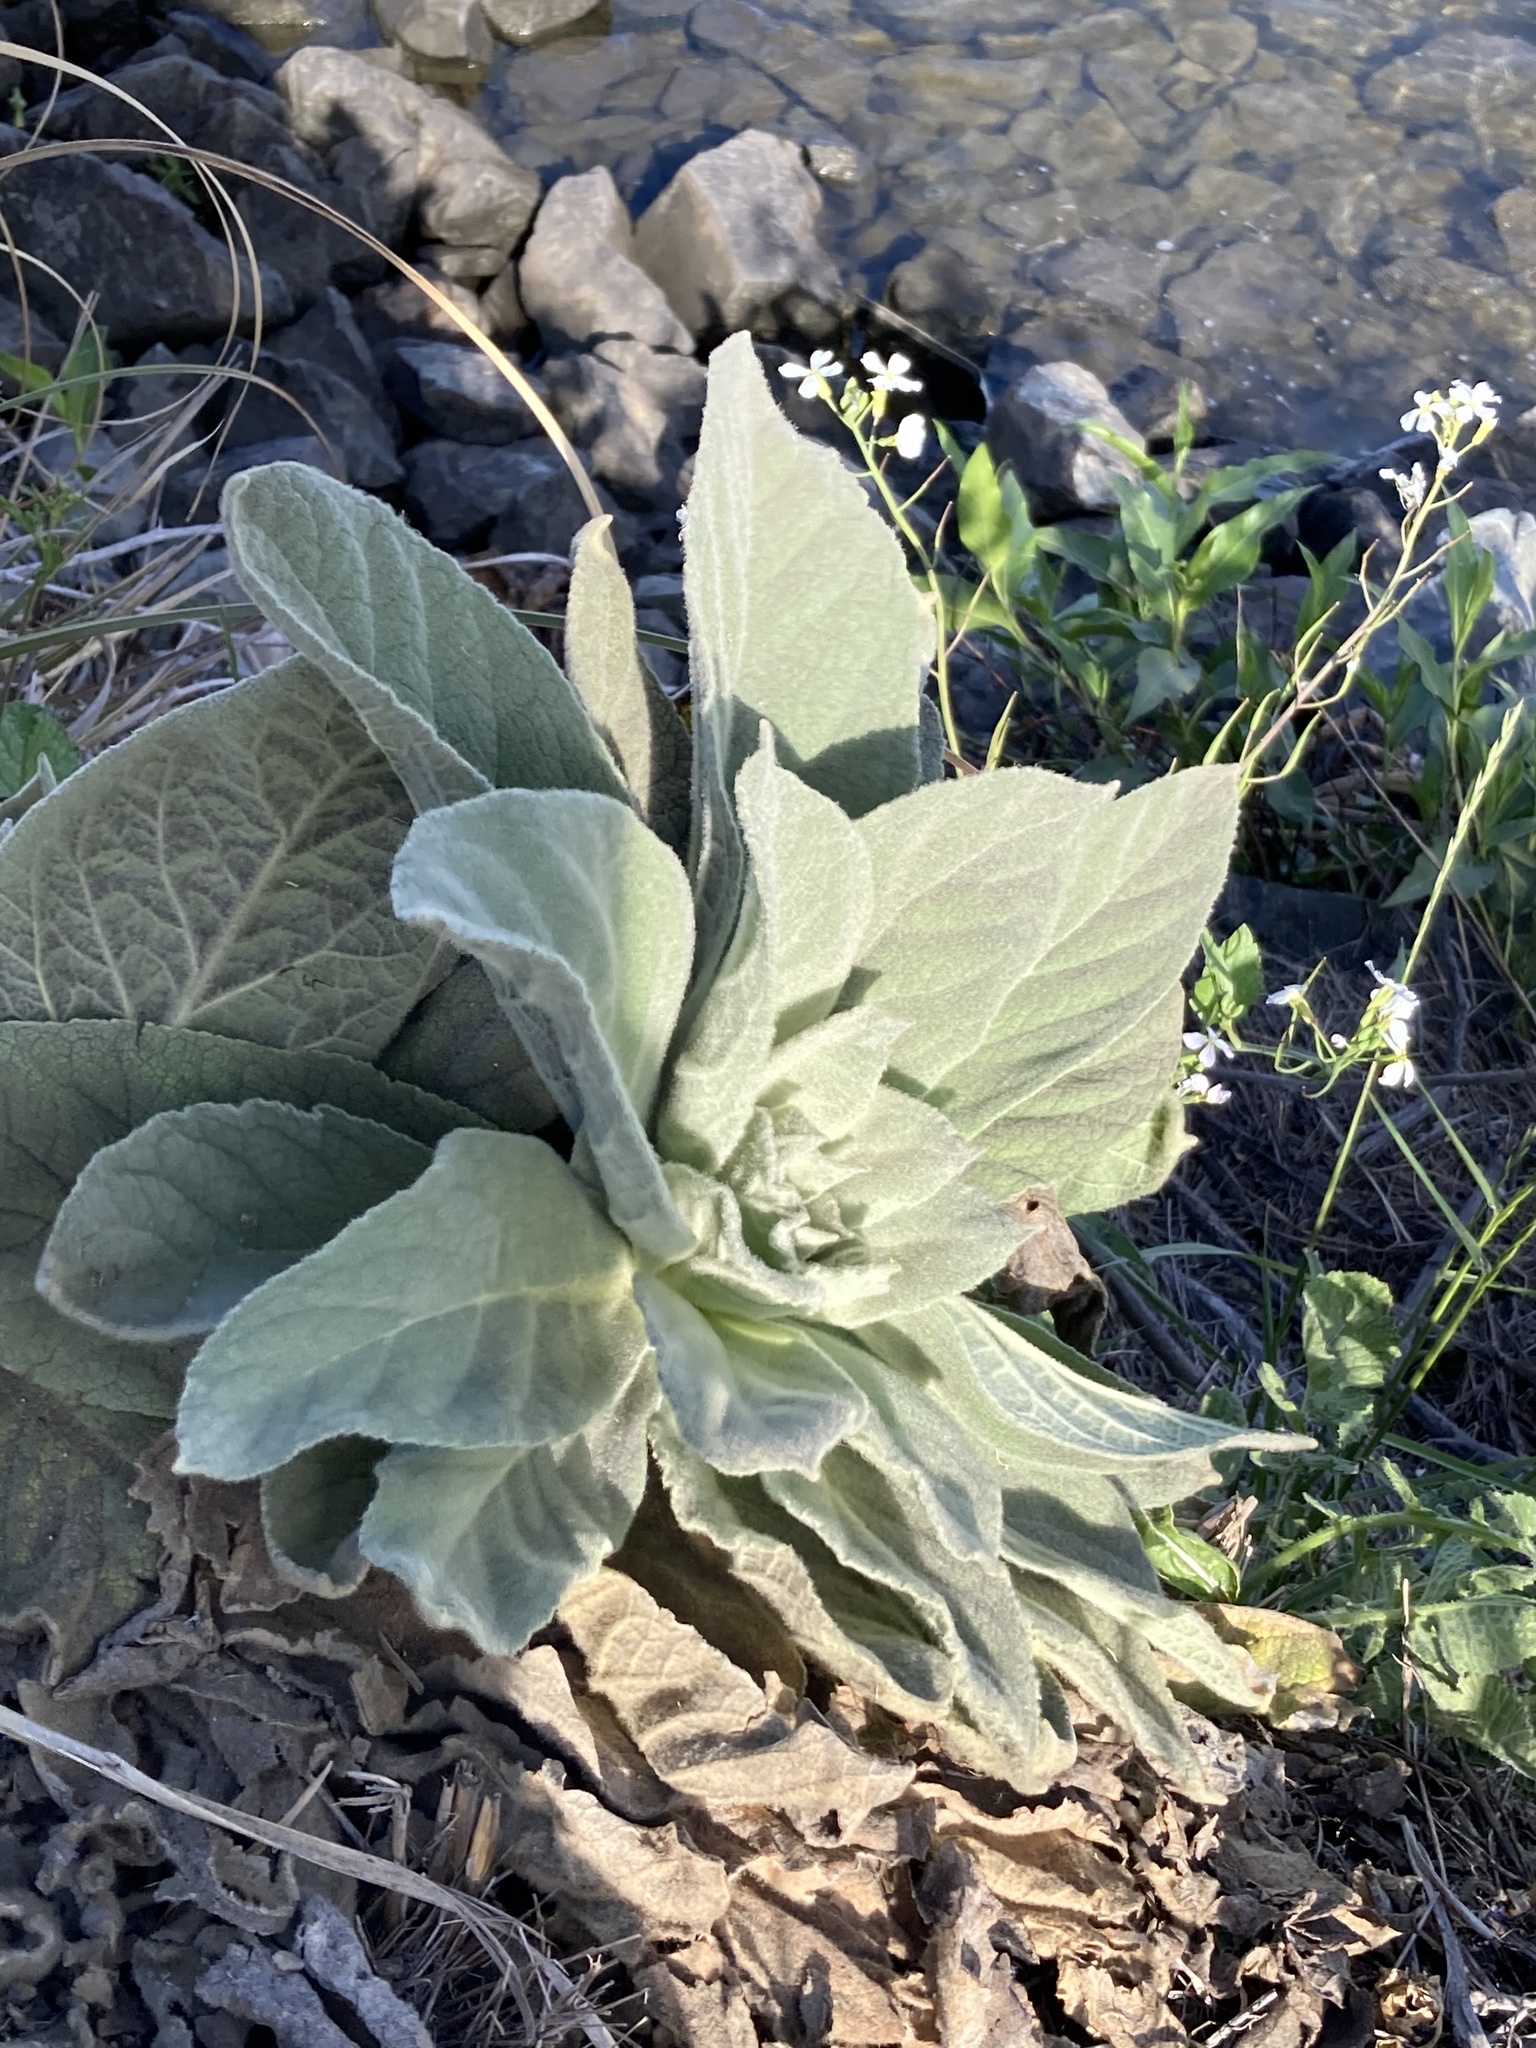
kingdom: Plantae
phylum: Tracheophyta
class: Magnoliopsida
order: Lamiales
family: Scrophulariaceae
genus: Verbascum
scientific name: Verbascum thapsus
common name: Common mullein
